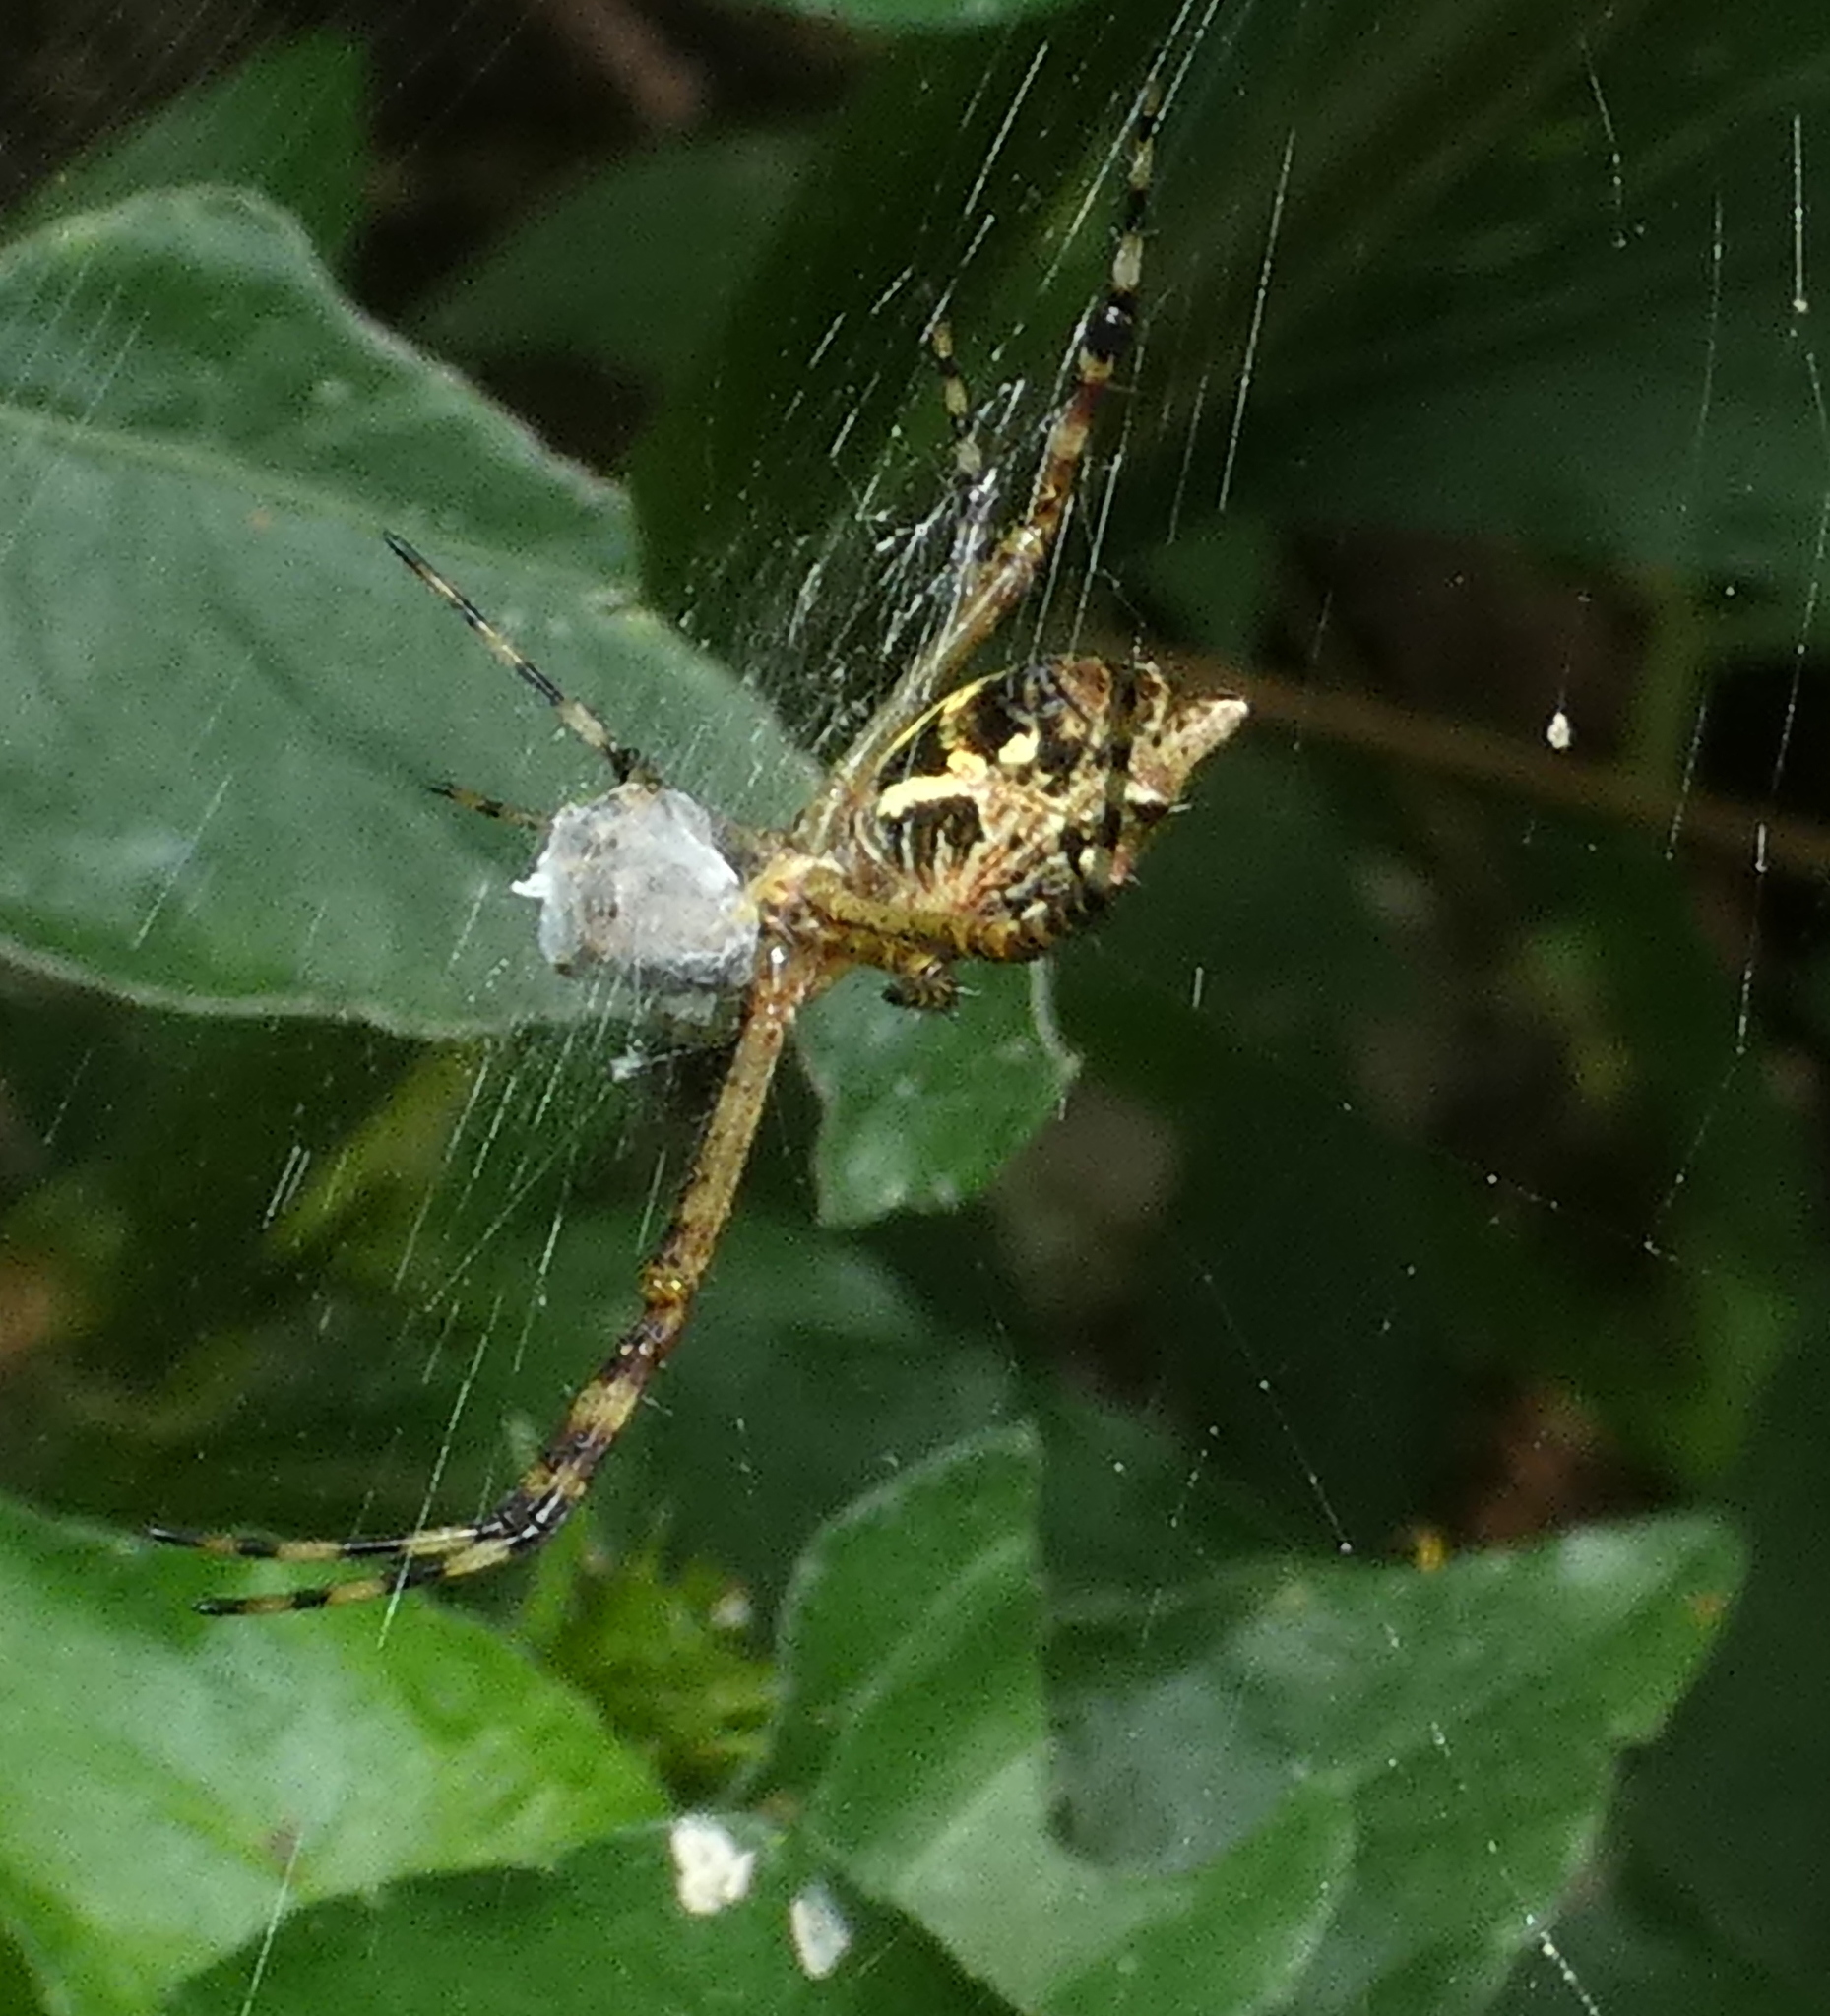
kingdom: Animalia
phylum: Arthropoda
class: Arachnida
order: Araneae
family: Araneidae
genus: Argiope
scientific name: Argiope argentata
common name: Orb weavers
